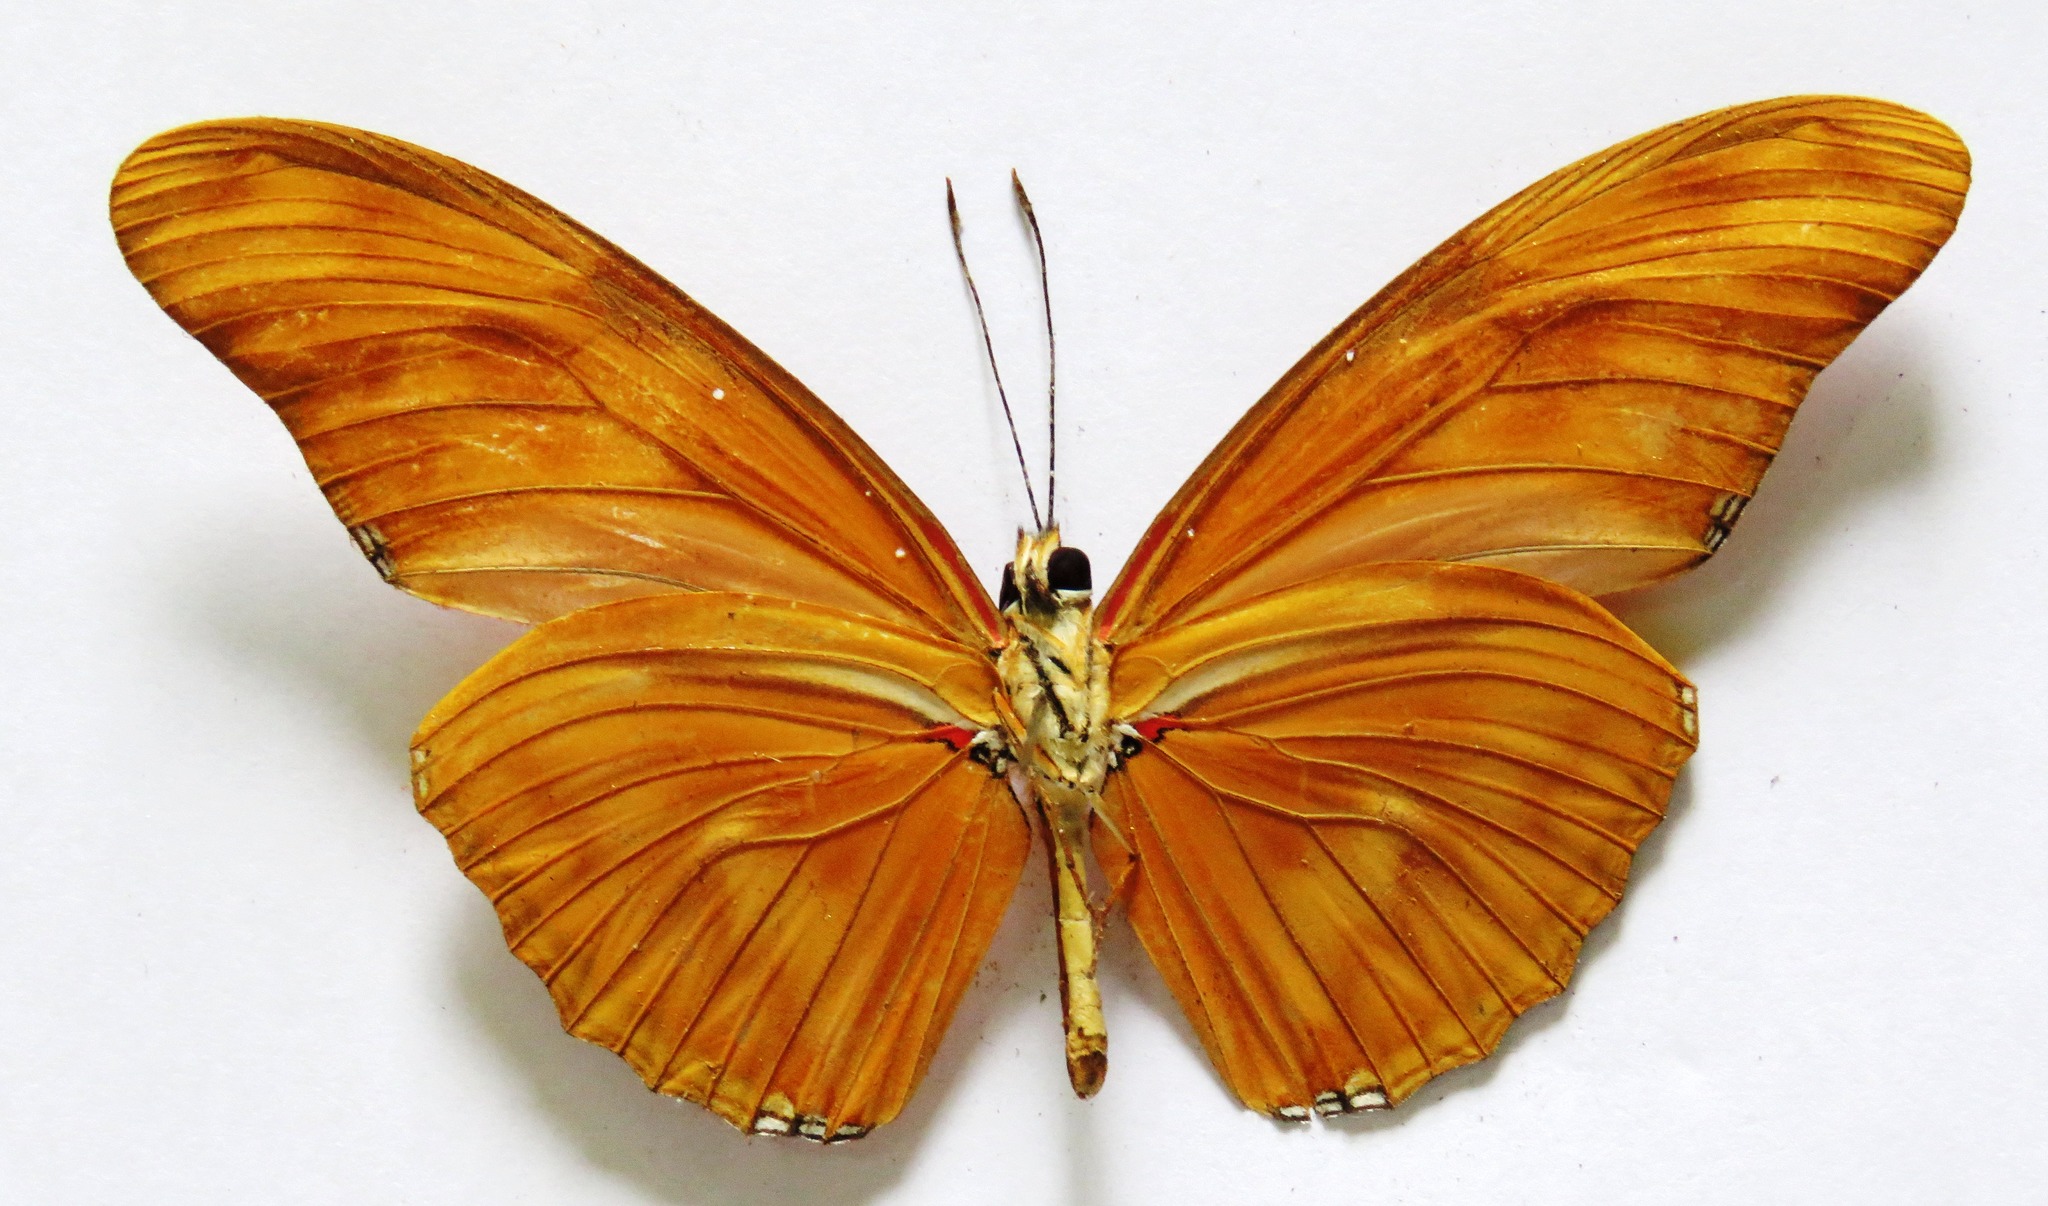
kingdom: Animalia
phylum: Arthropoda
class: Insecta
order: Lepidoptera
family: Nymphalidae
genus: Dryas
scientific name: Dryas iulia
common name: Flambeau
